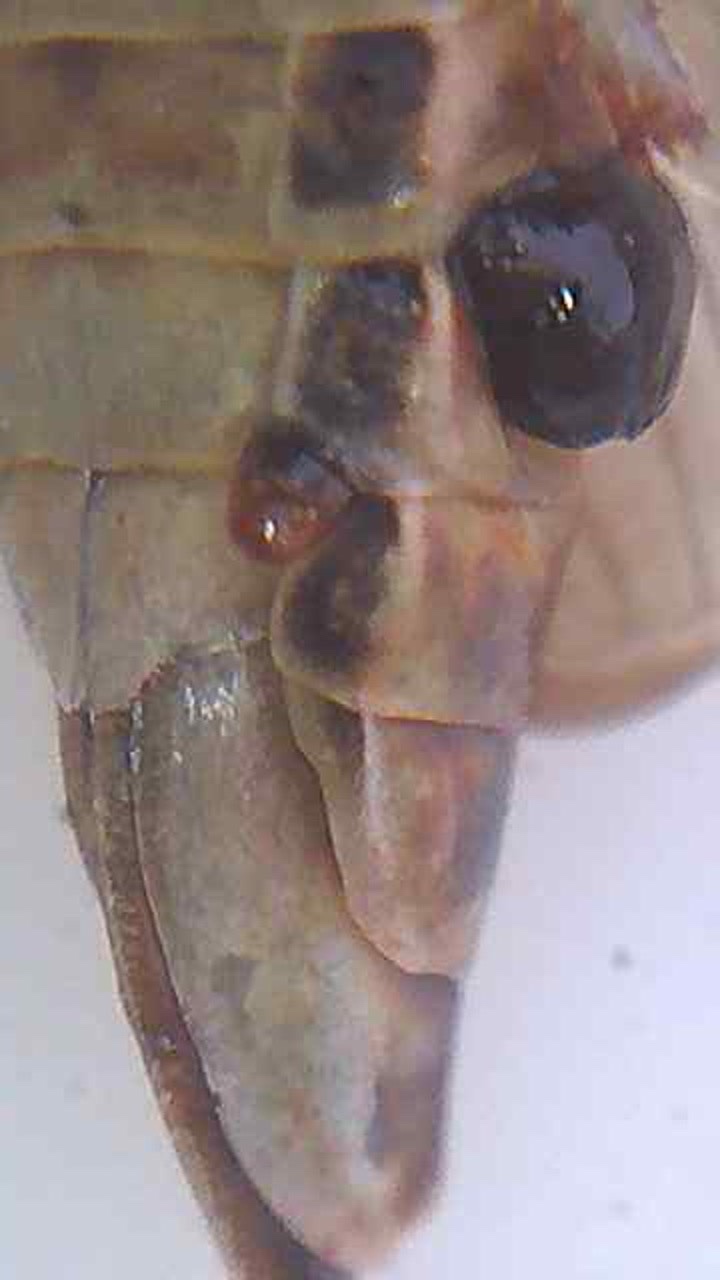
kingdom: Animalia
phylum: Arthropoda
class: Insecta
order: Strepsiptera
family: Halictophagidae
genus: Coriophagus
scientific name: Coriophagus casui
